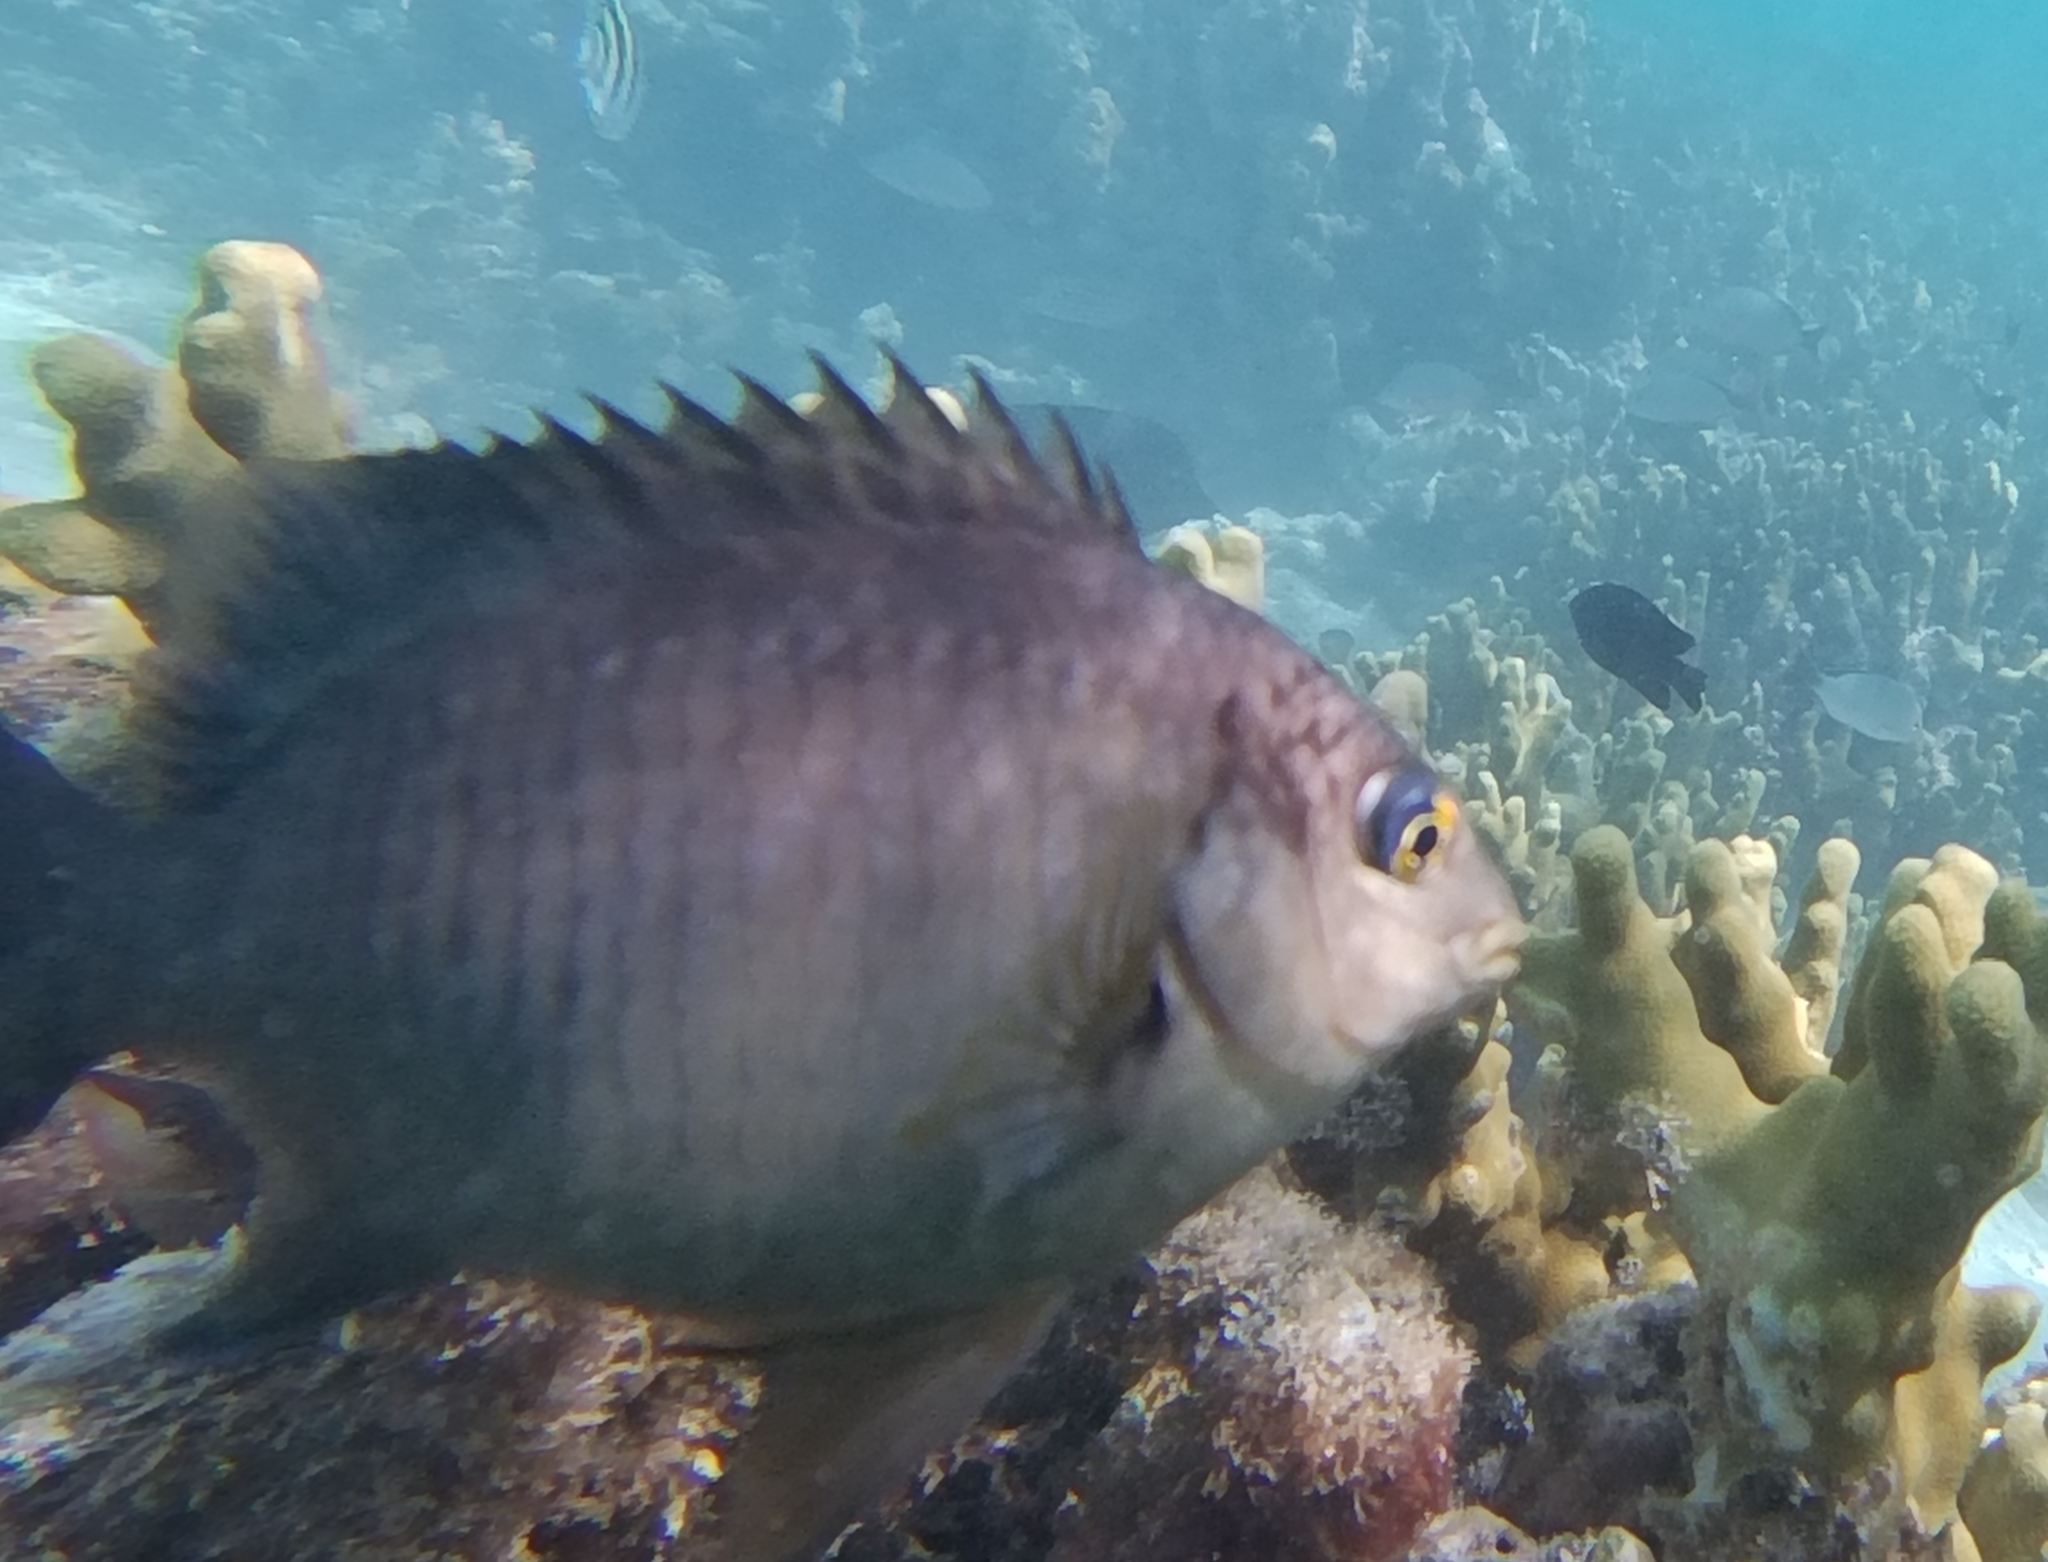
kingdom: Animalia
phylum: Chordata
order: Perciformes
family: Pomacentridae
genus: Stegastes
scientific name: Stegastes nigricans
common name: Dusky gregory
